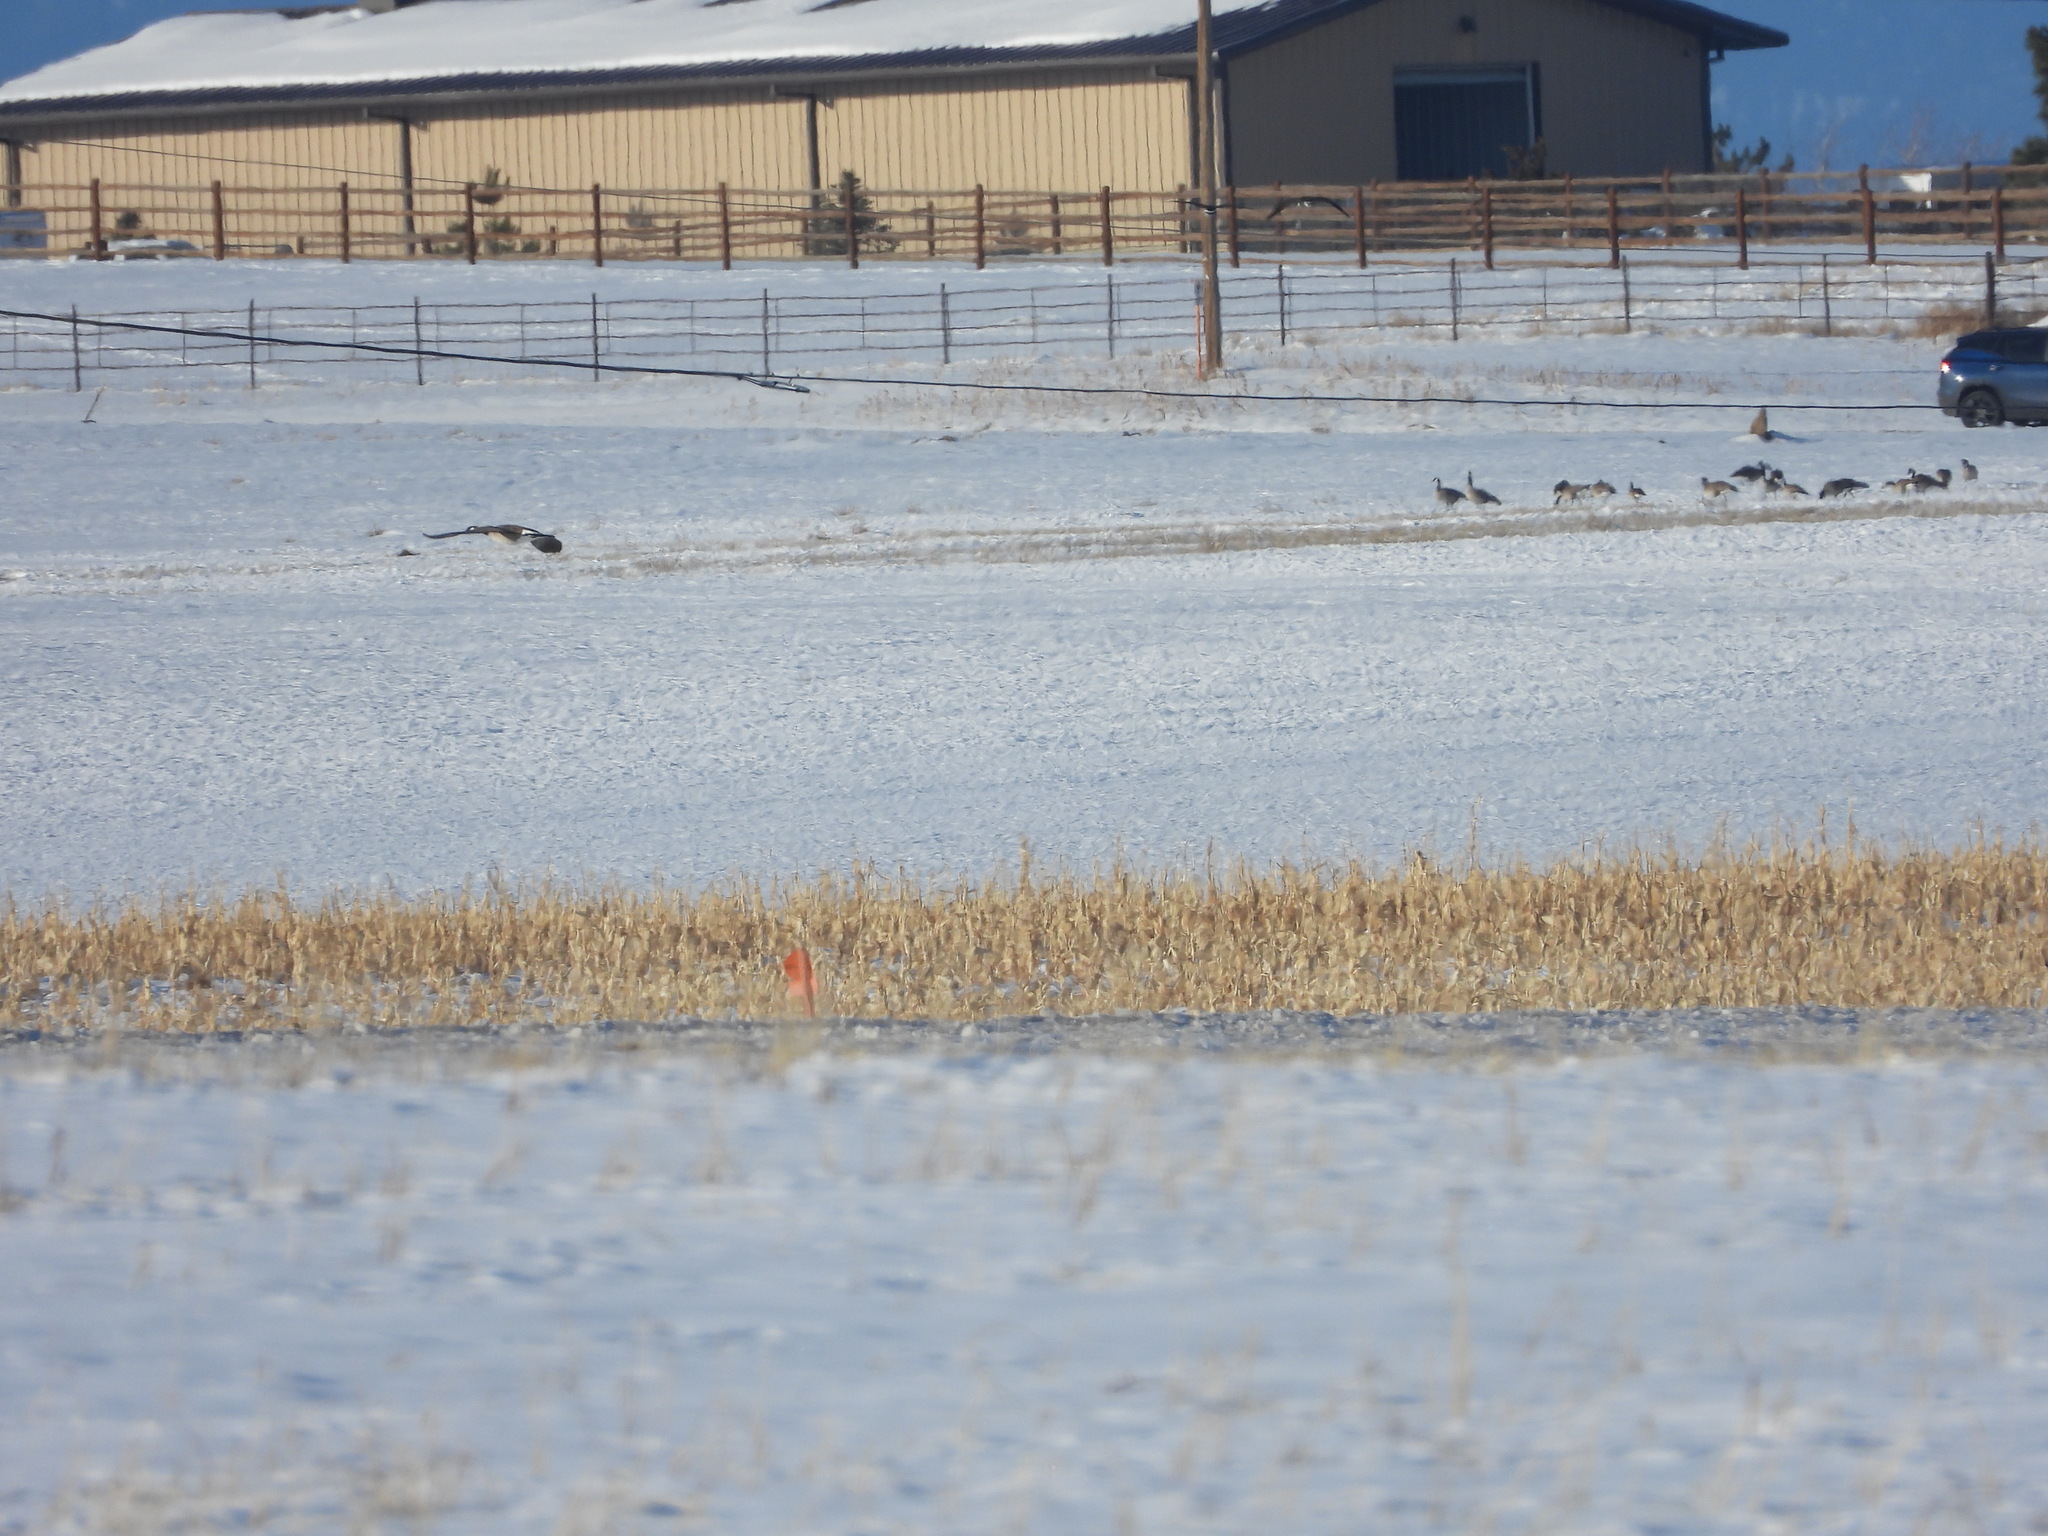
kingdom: Animalia
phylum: Chordata
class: Aves
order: Anseriformes
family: Anatidae
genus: Branta
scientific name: Branta hutchinsii
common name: Cackling goose
